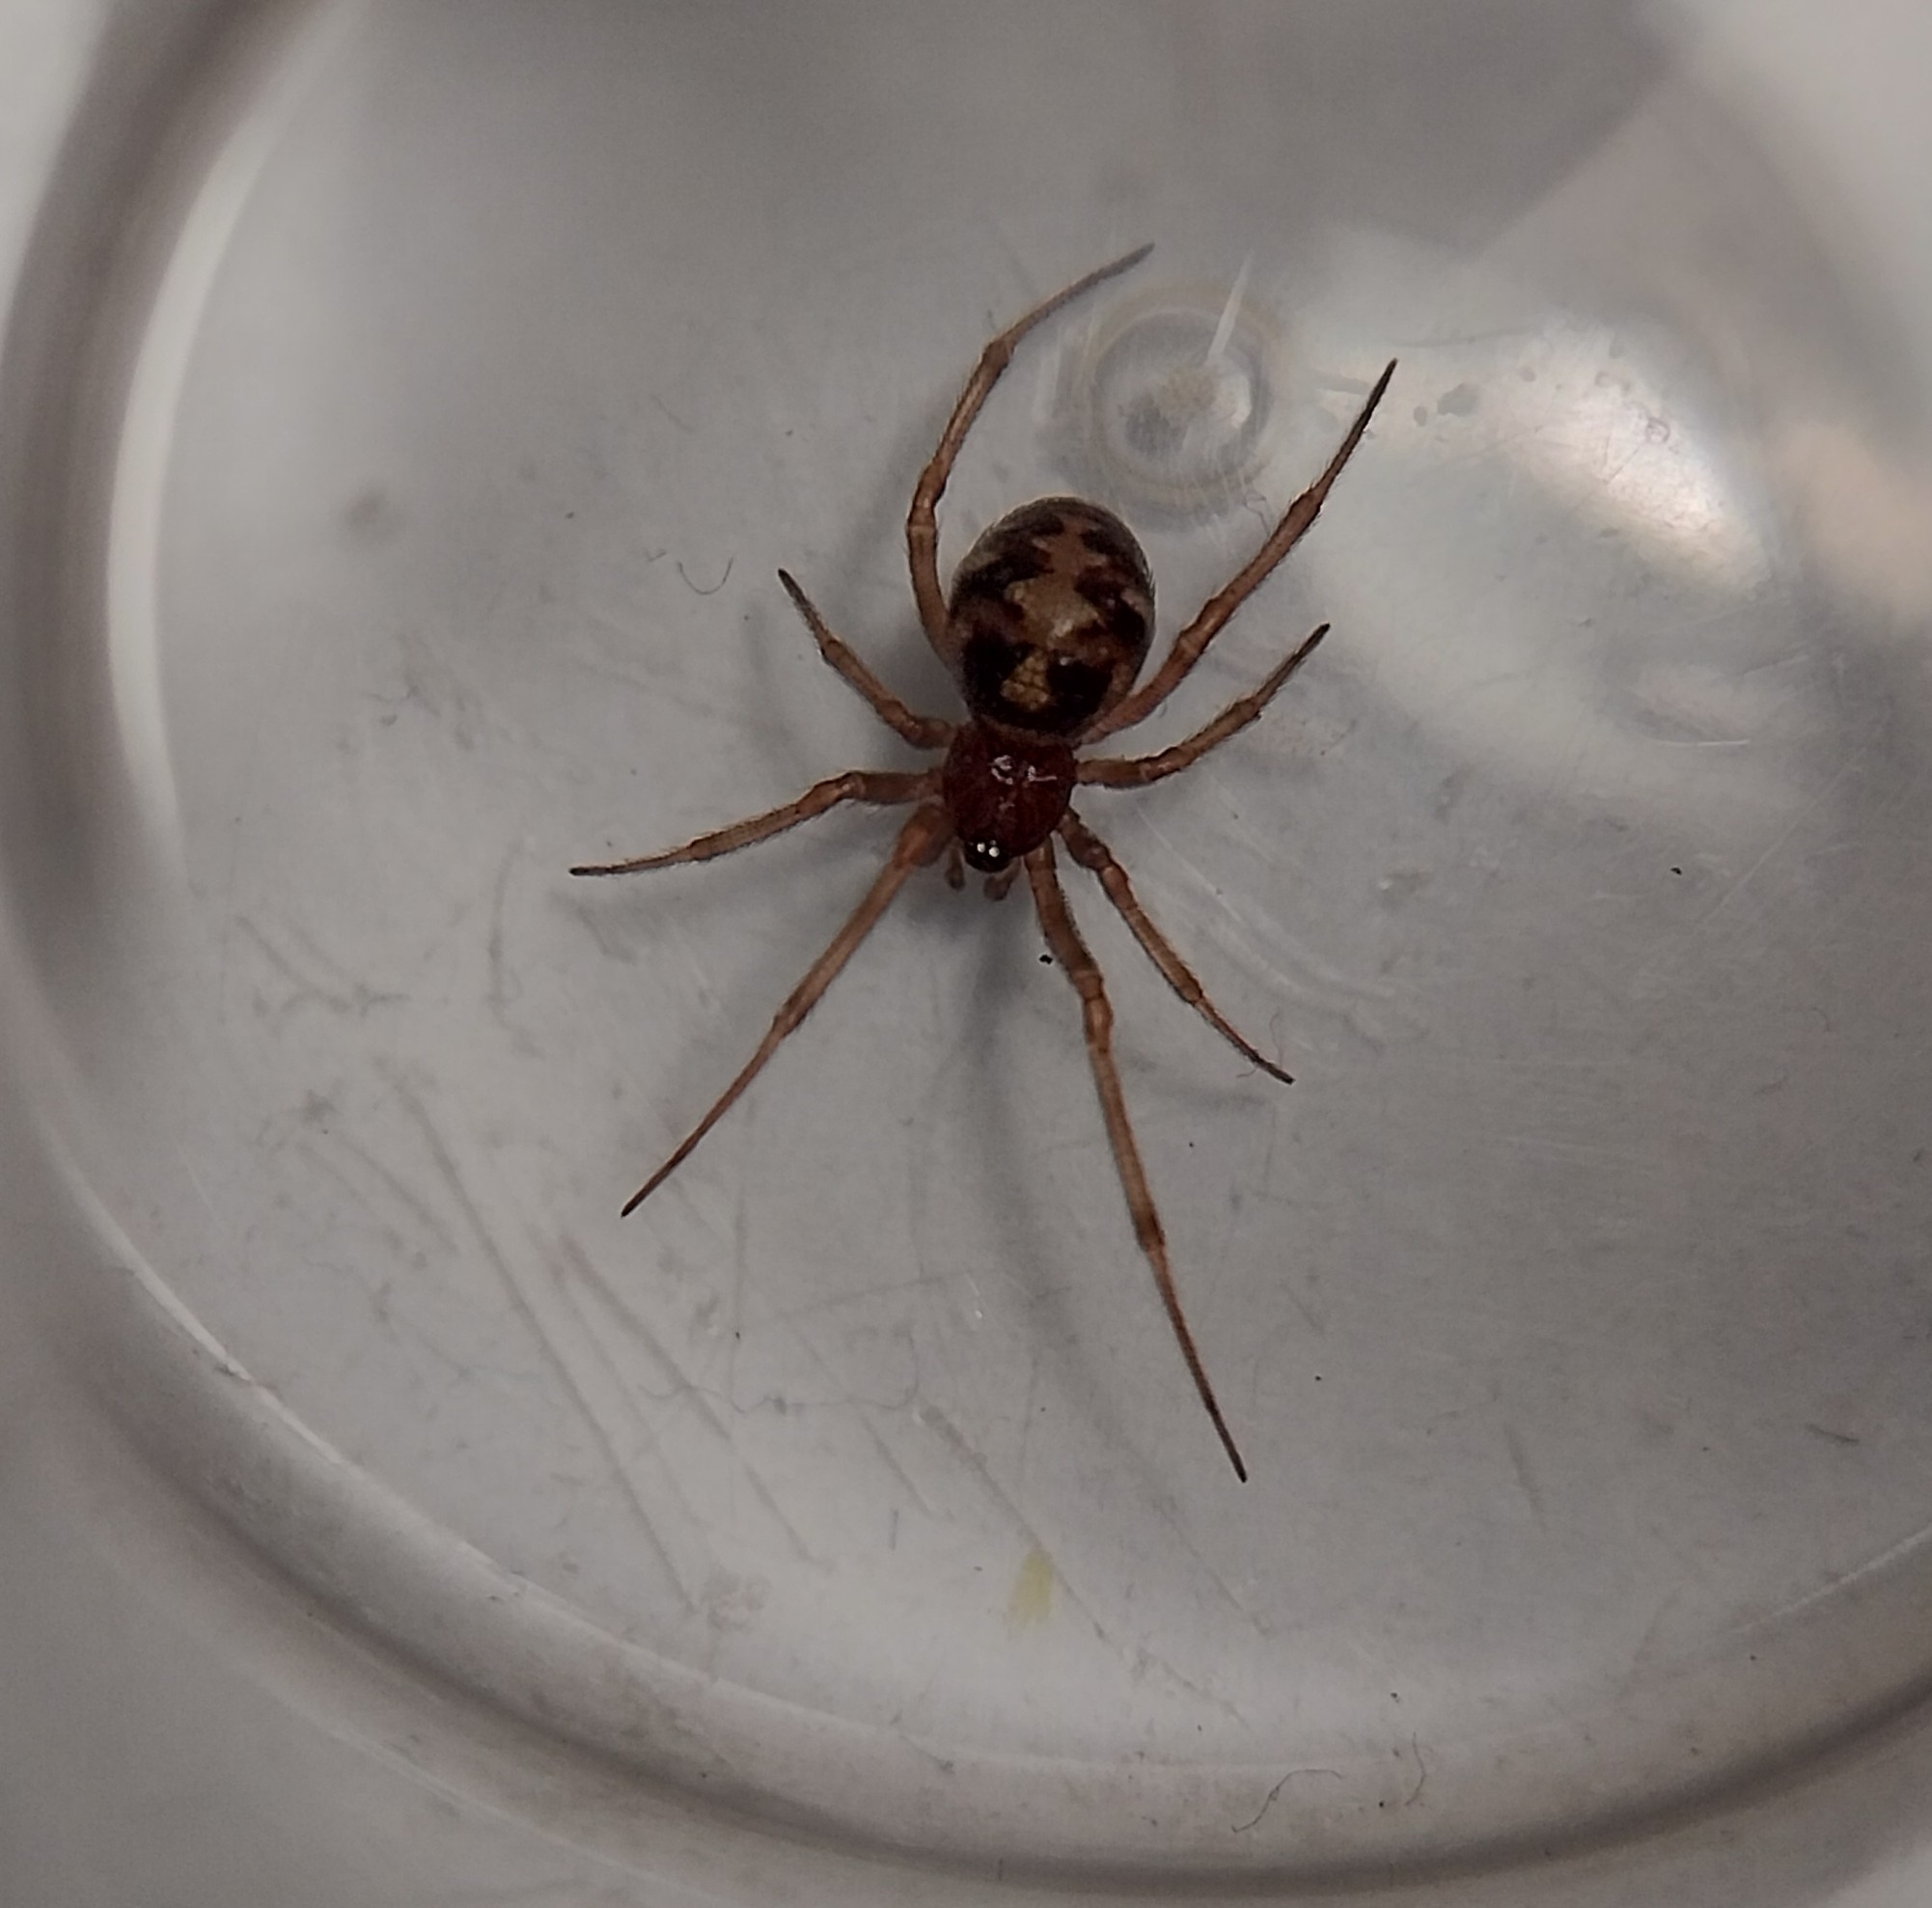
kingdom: Animalia
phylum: Arthropoda
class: Arachnida
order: Araneae
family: Theridiidae
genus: Steatoda
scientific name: Steatoda triangulosa
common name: Triangulate bud spider
